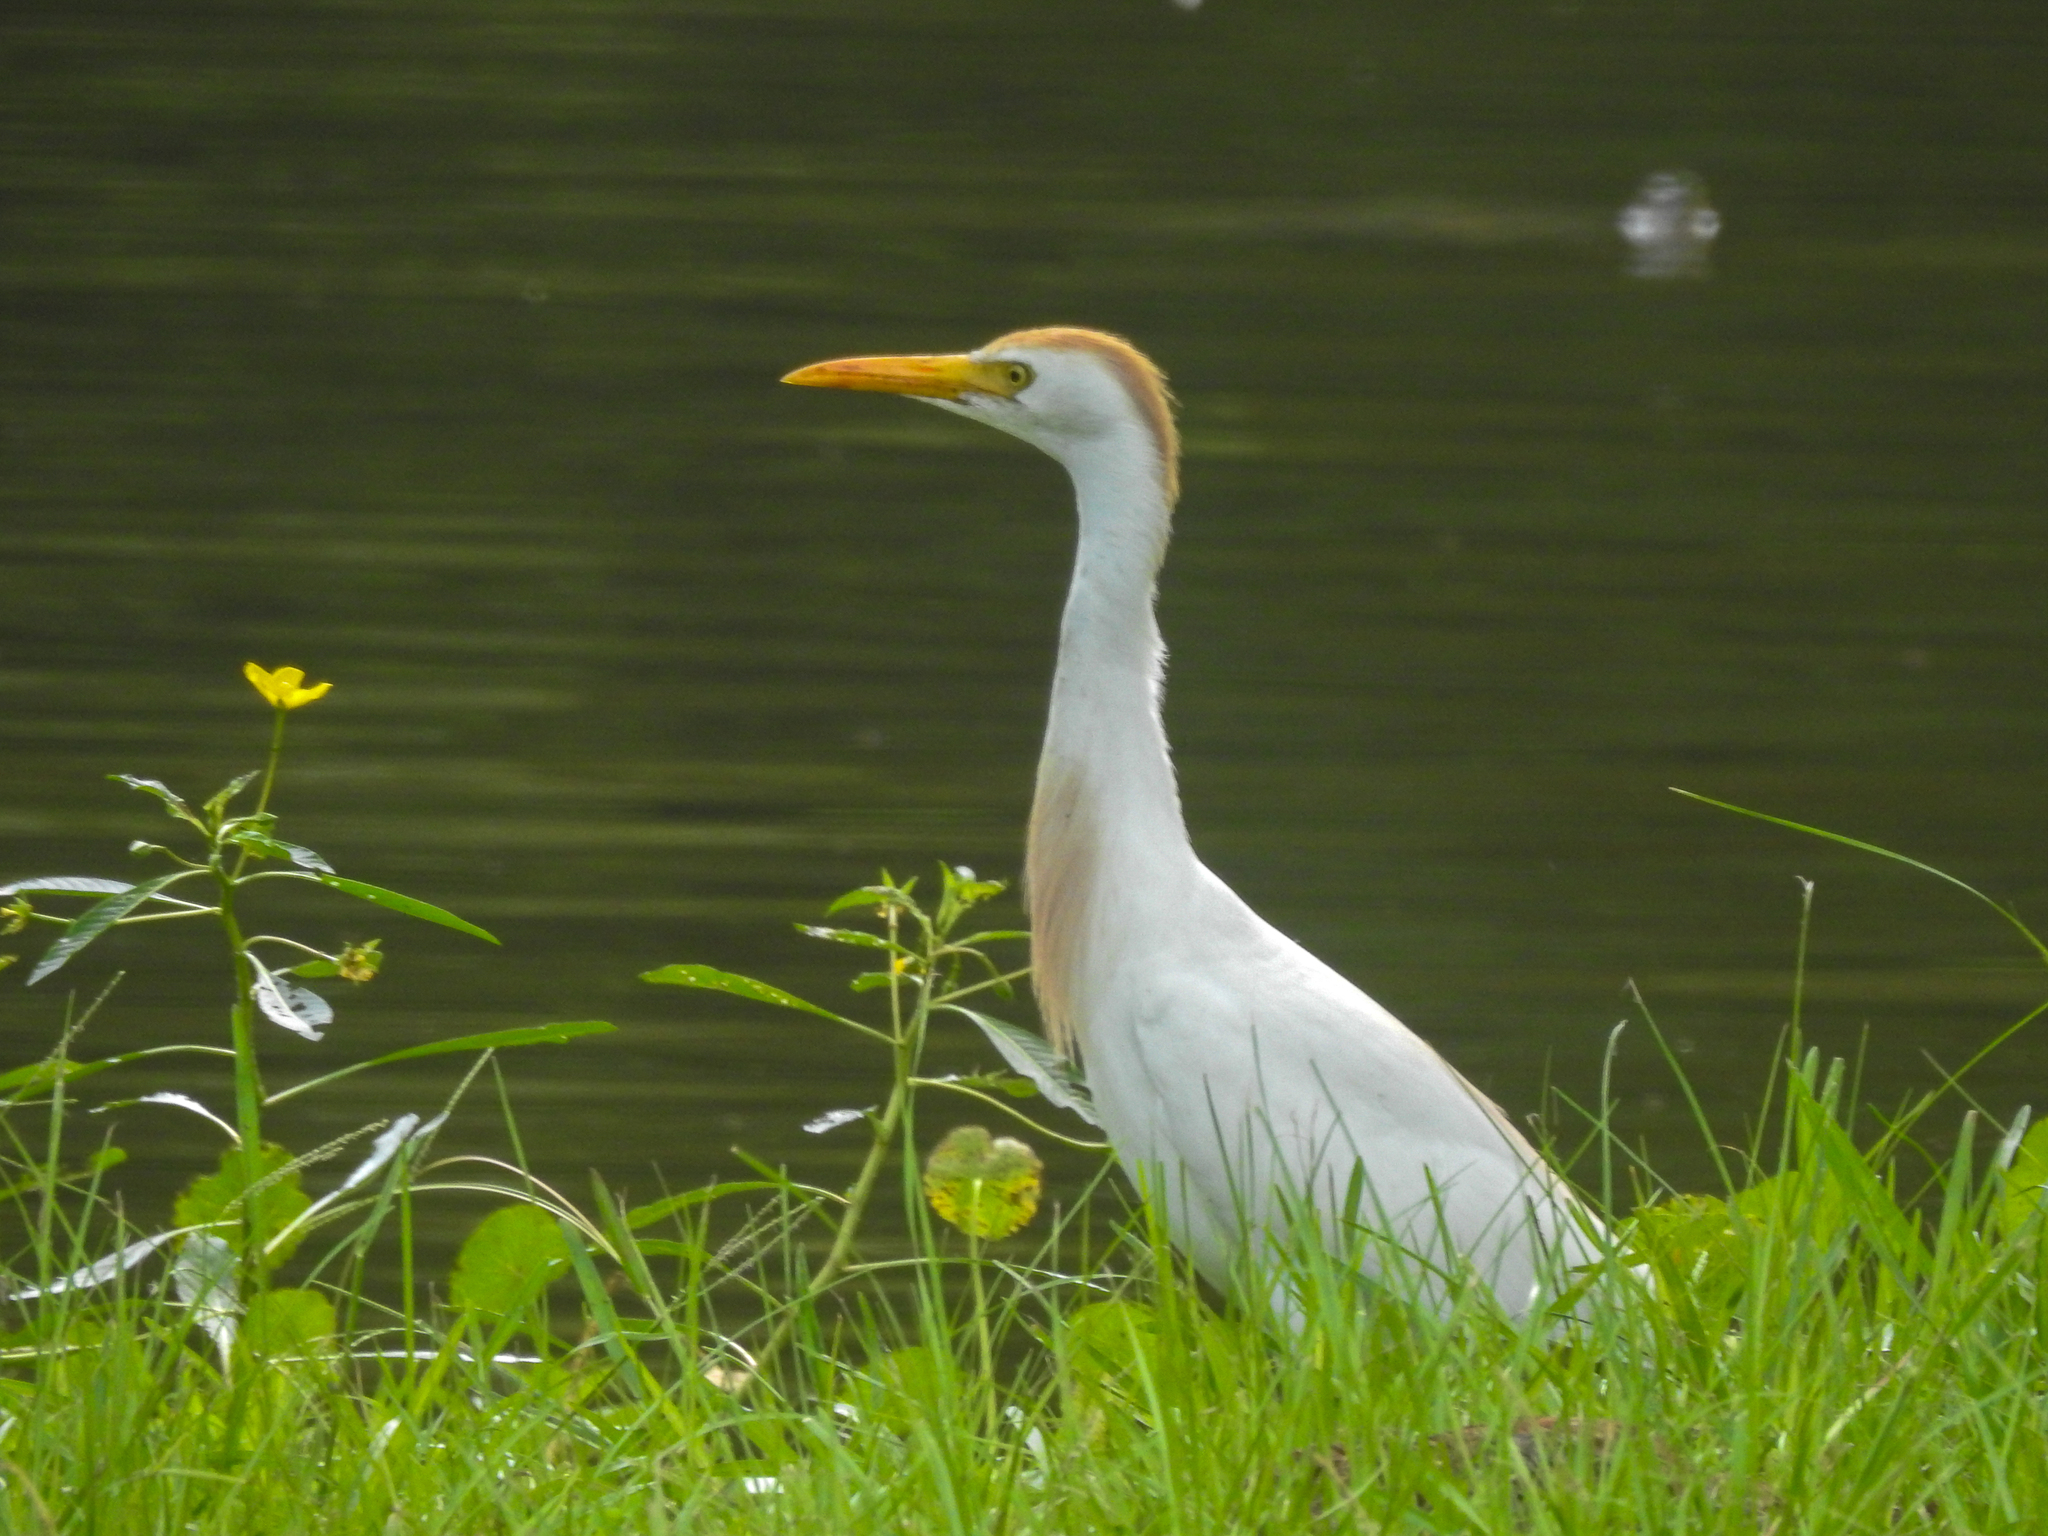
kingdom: Animalia
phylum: Chordata
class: Aves
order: Pelecaniformes
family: Ardeidae
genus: Bubulcus
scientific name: Bubulcus ibis
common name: Cattle egret
